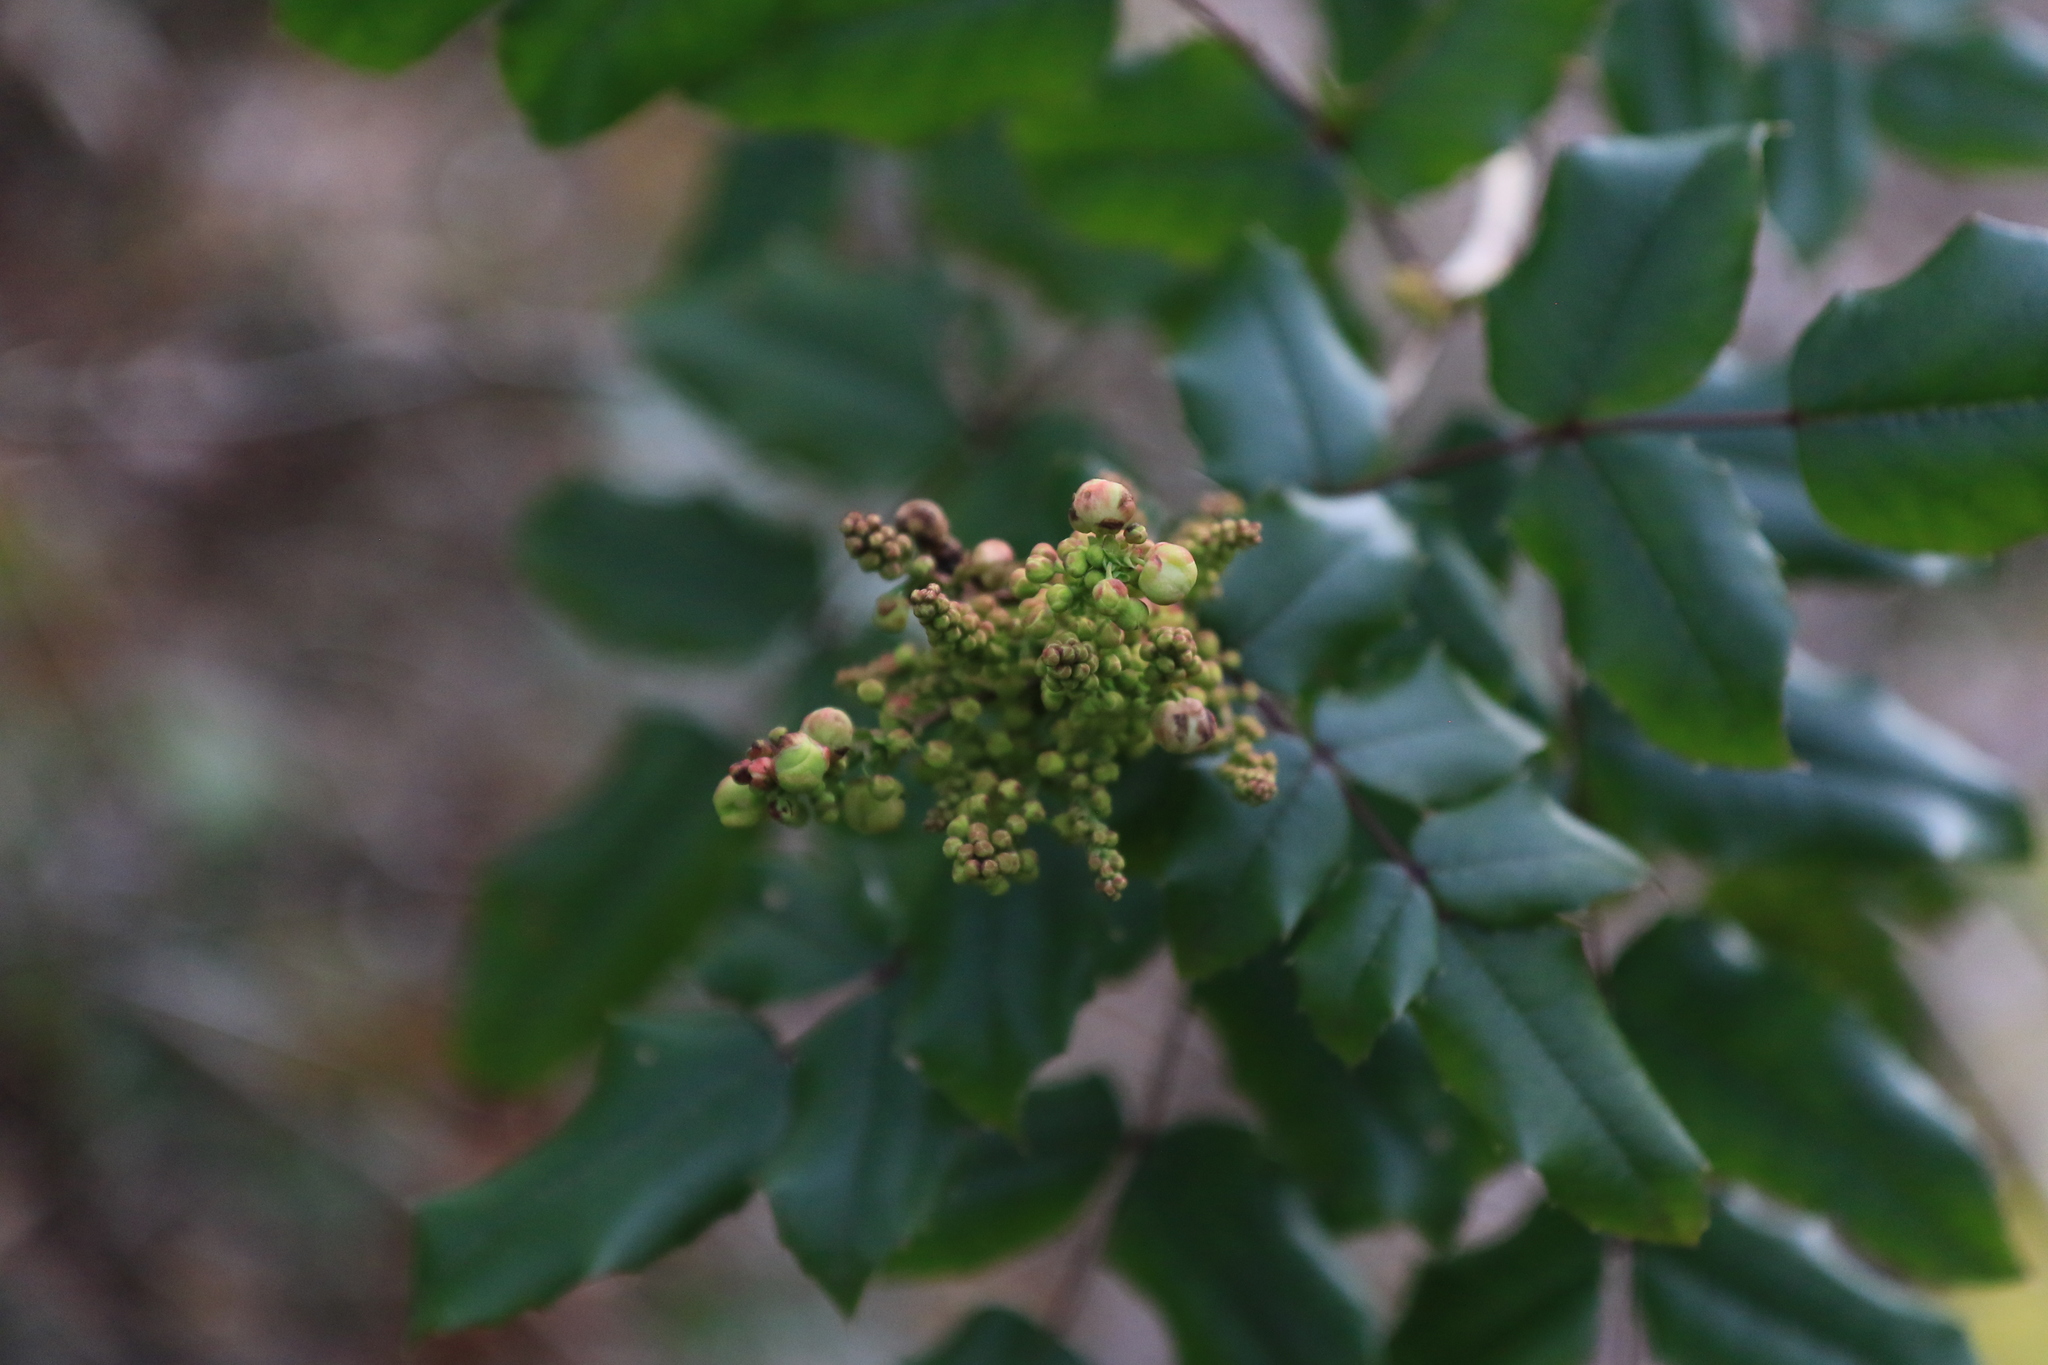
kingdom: Plantae
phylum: Tracheophyta
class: Magnoliopsida
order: Ranunculales
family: Berberidaceae
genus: Mahonia
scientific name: Mahonia aquifolium
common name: Oregon-grape
